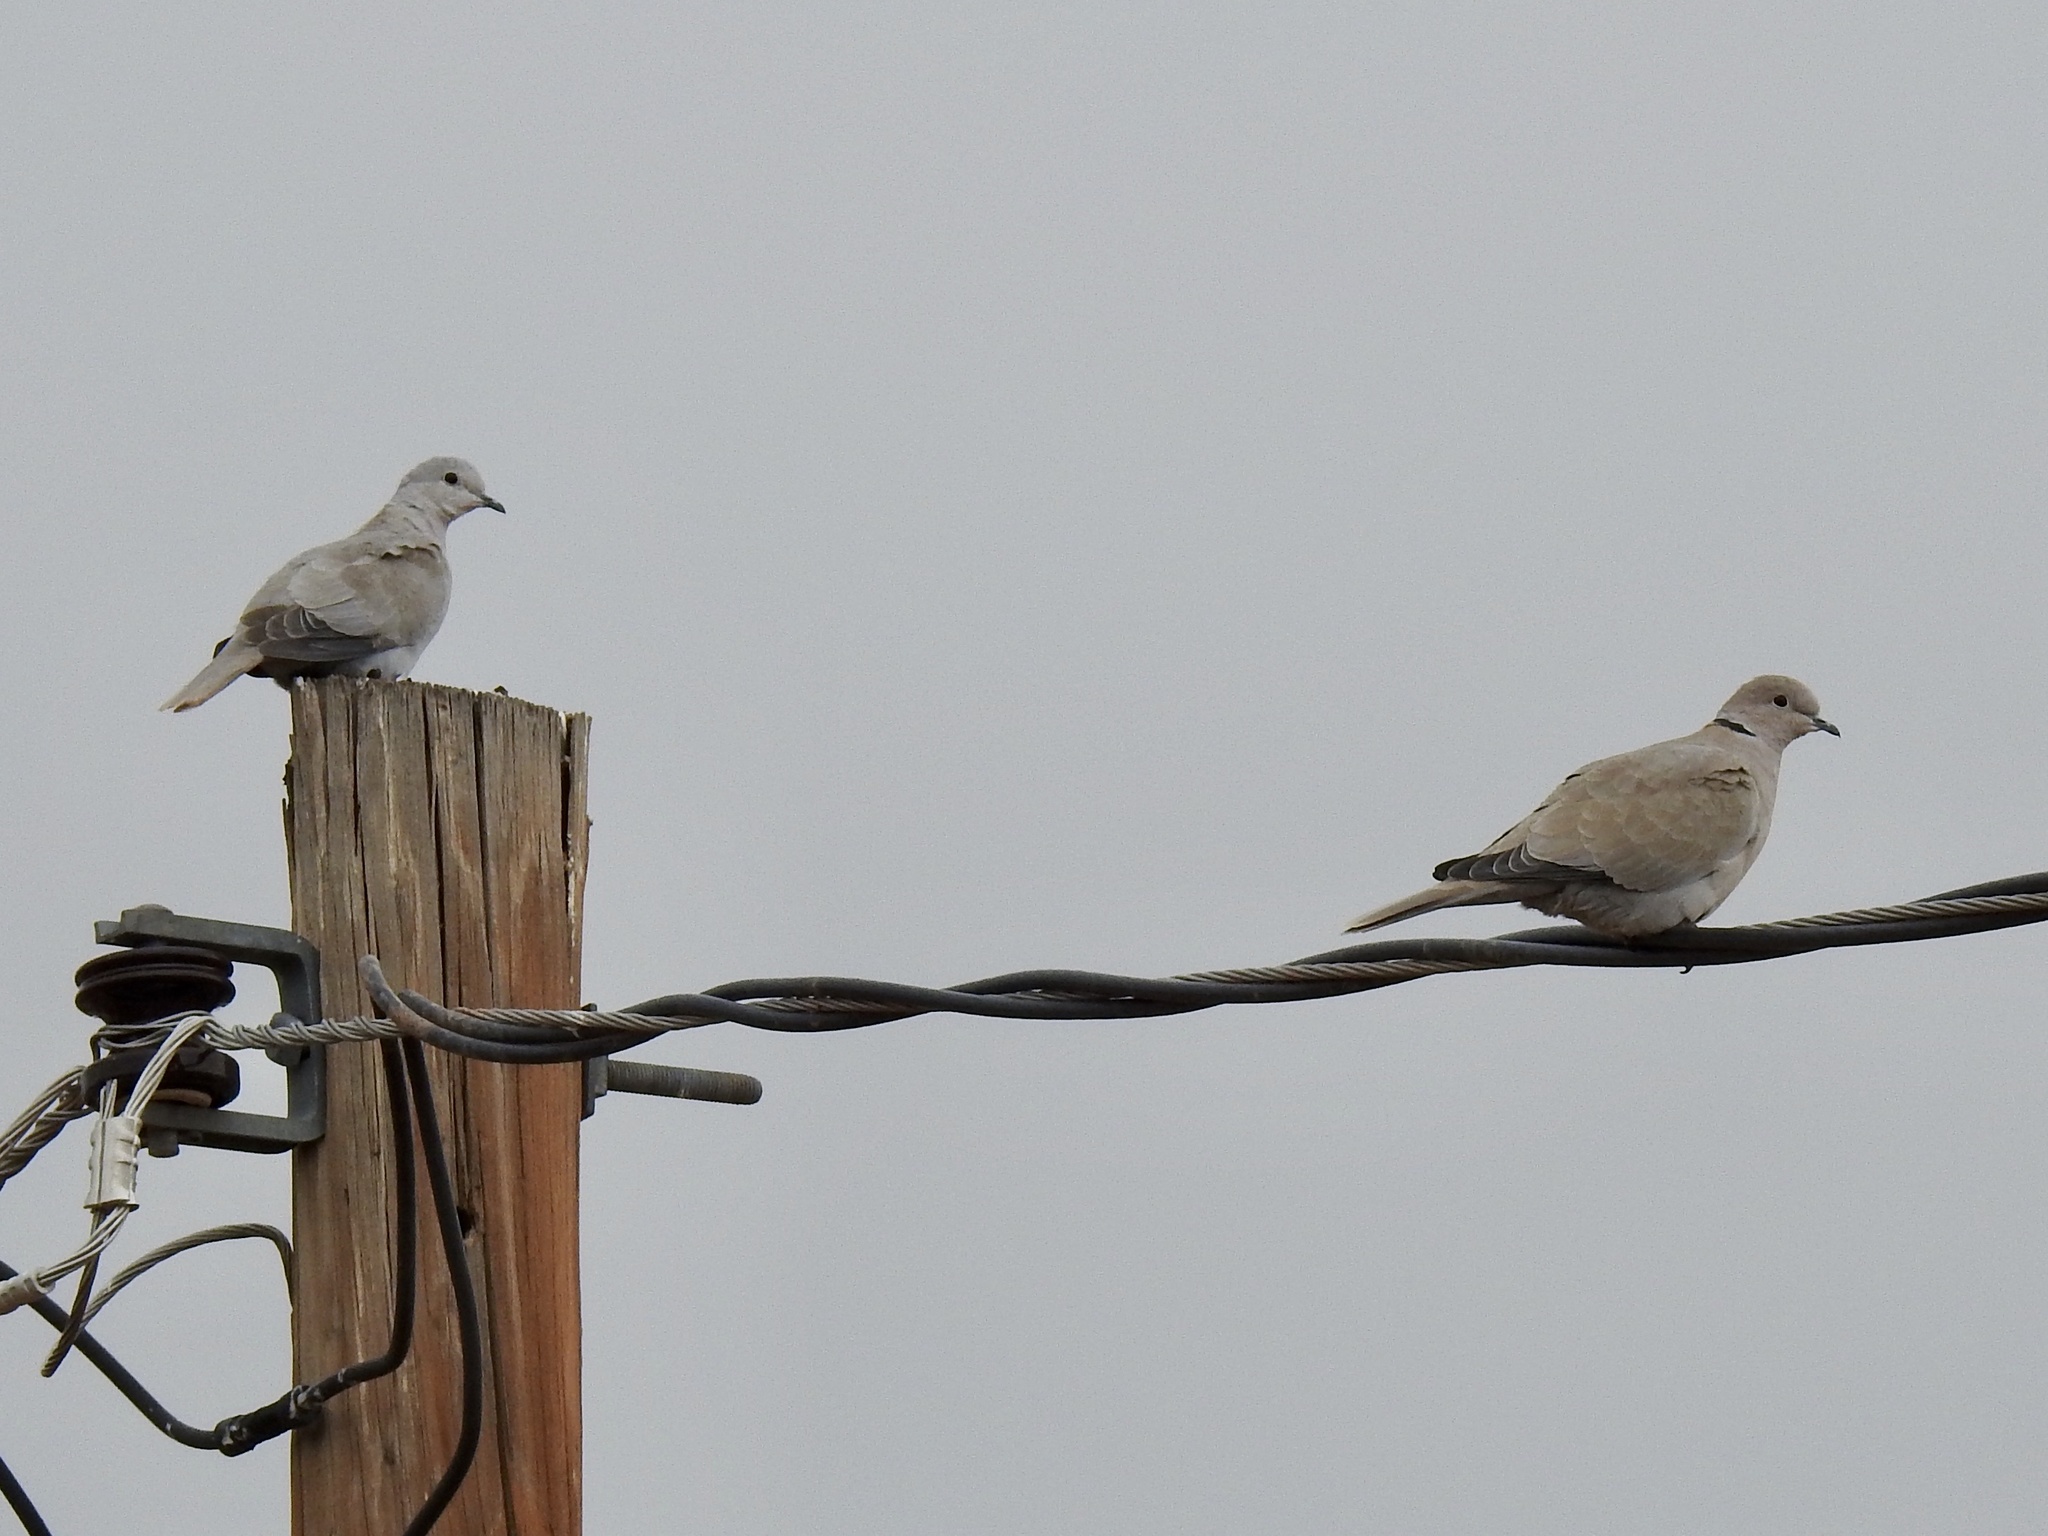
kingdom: Animalia
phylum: Chordata
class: Aves
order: Columbiformes
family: Columbidae
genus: Streptopelia
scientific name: Streptopelia decaocto
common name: Eurasian collared dove
